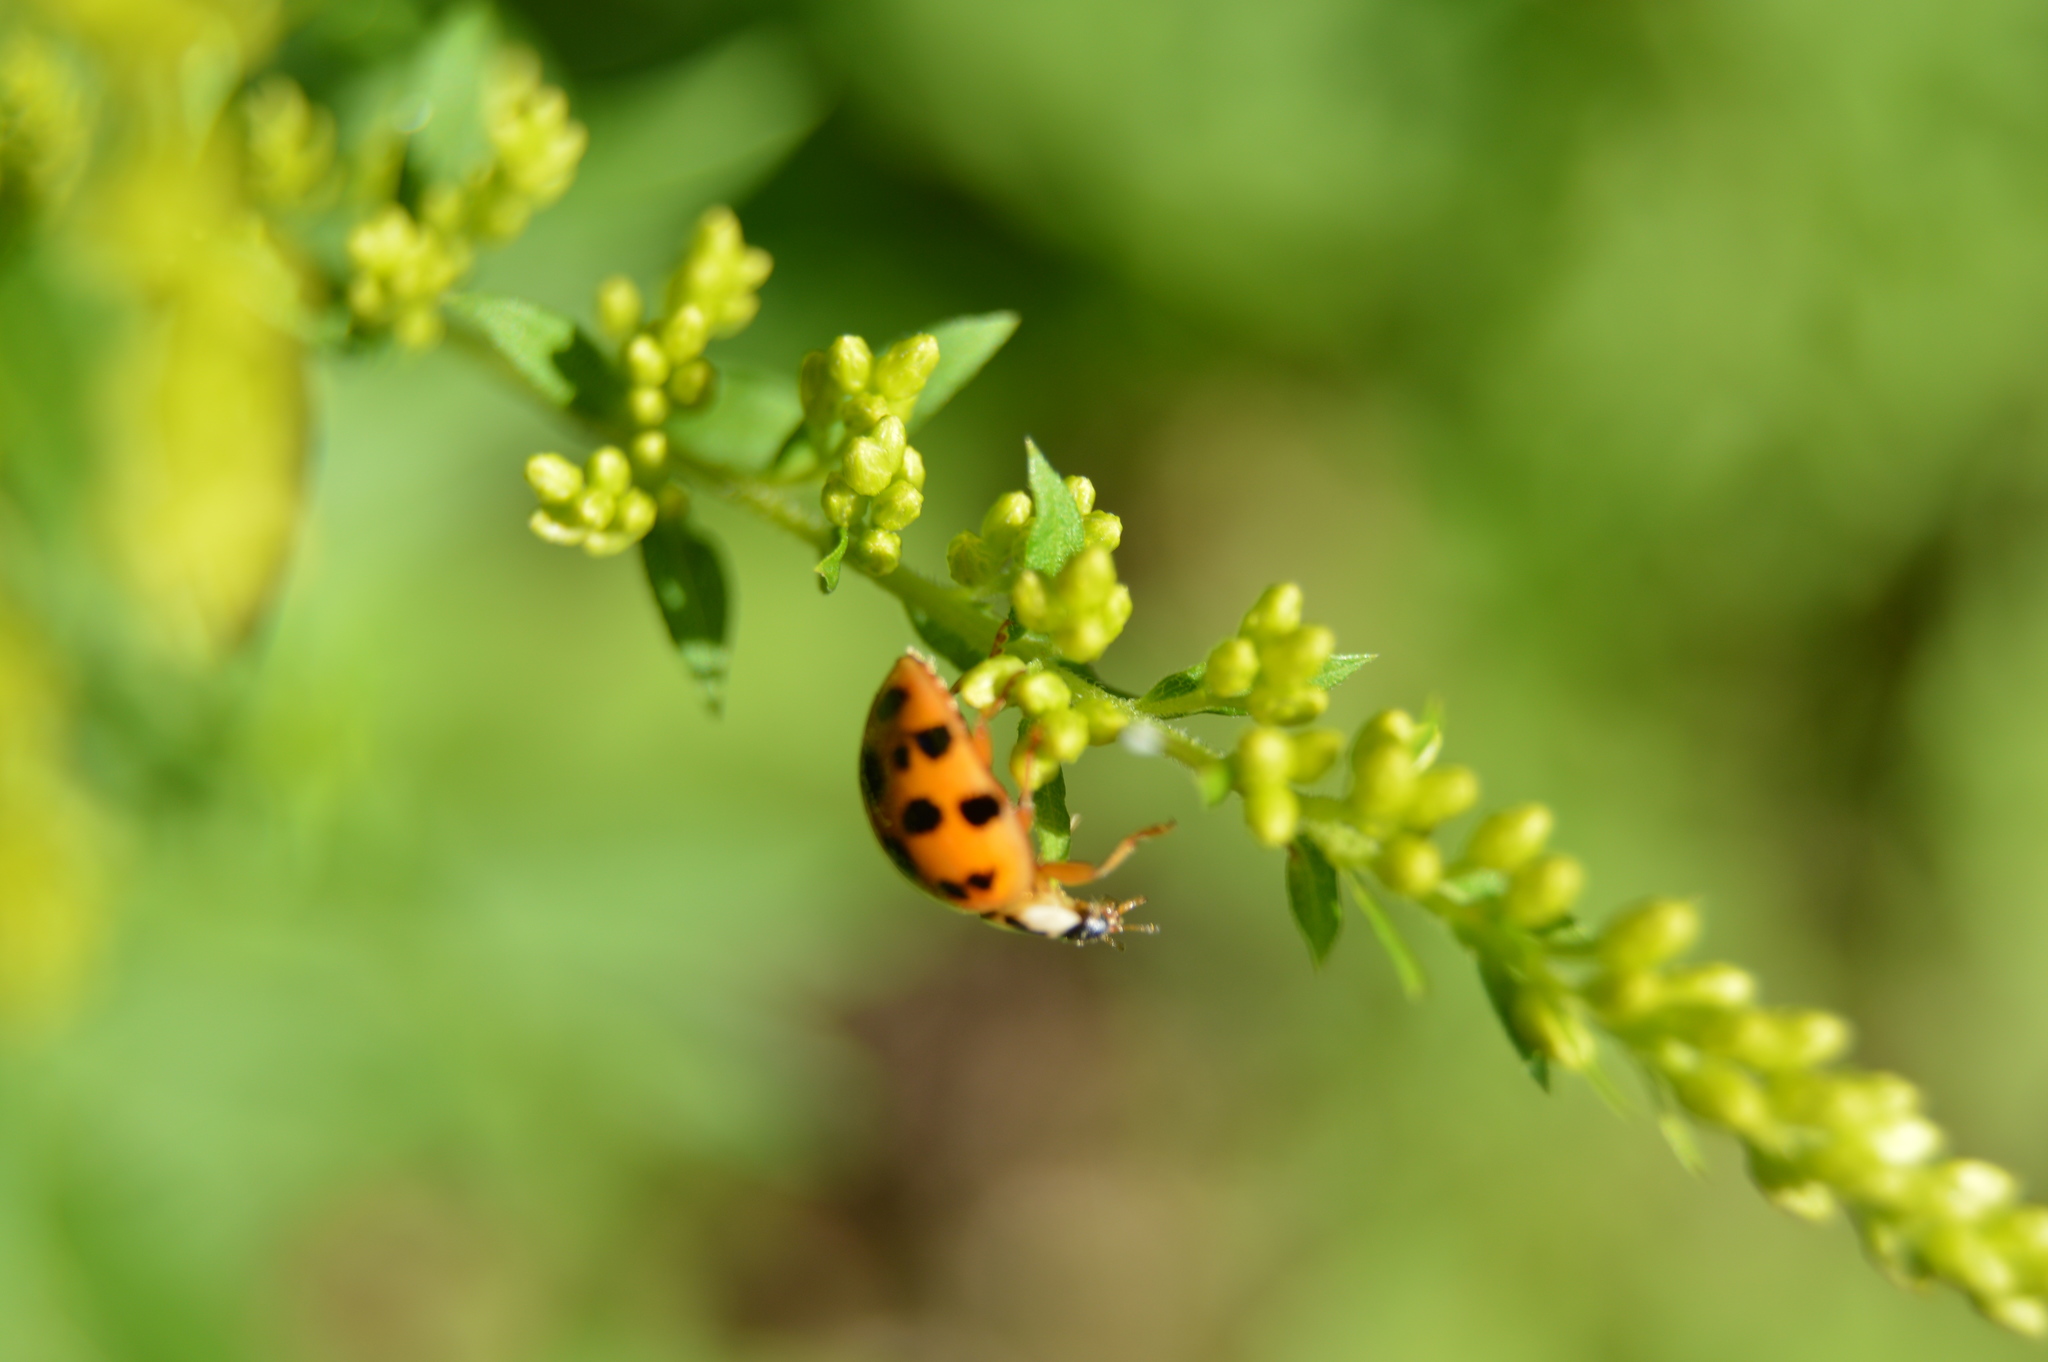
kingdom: Animalia
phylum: Arthropoda
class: Insecta
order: Coleoptera
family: Coccinellidae
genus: Harmonia
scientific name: Harmonia axyridis
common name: Harlequin ladybird
